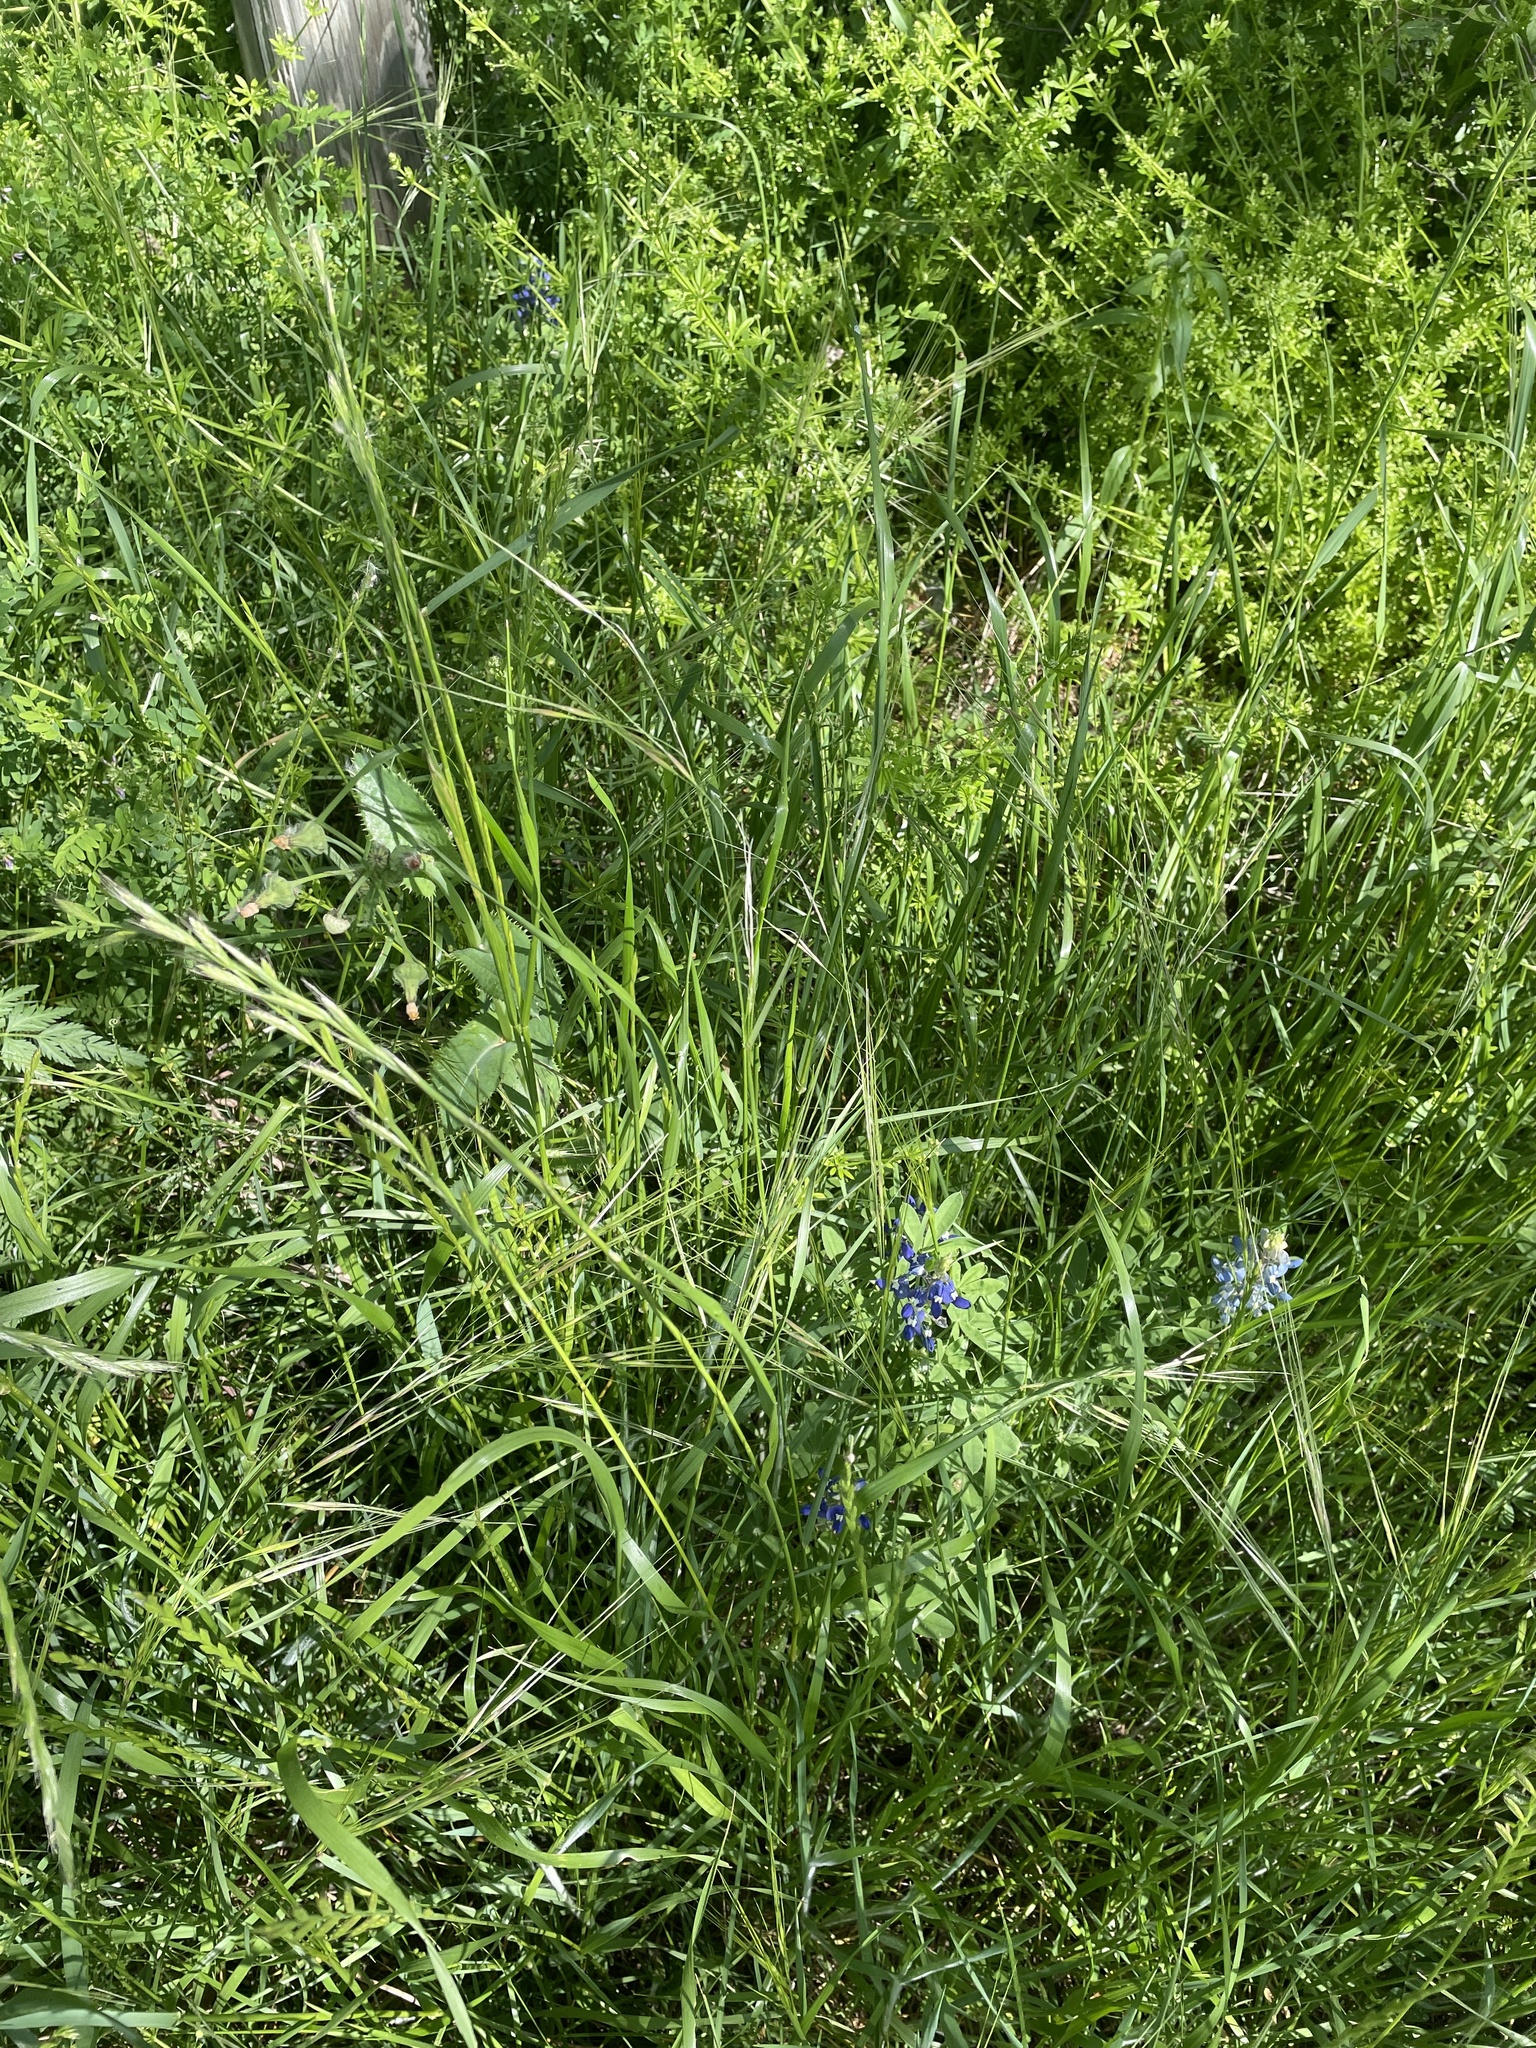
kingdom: Plantae
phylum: Tracheophyta
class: Liliopsida
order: Poales
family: Poaceae
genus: Nassella
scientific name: Nassella leucotricha
